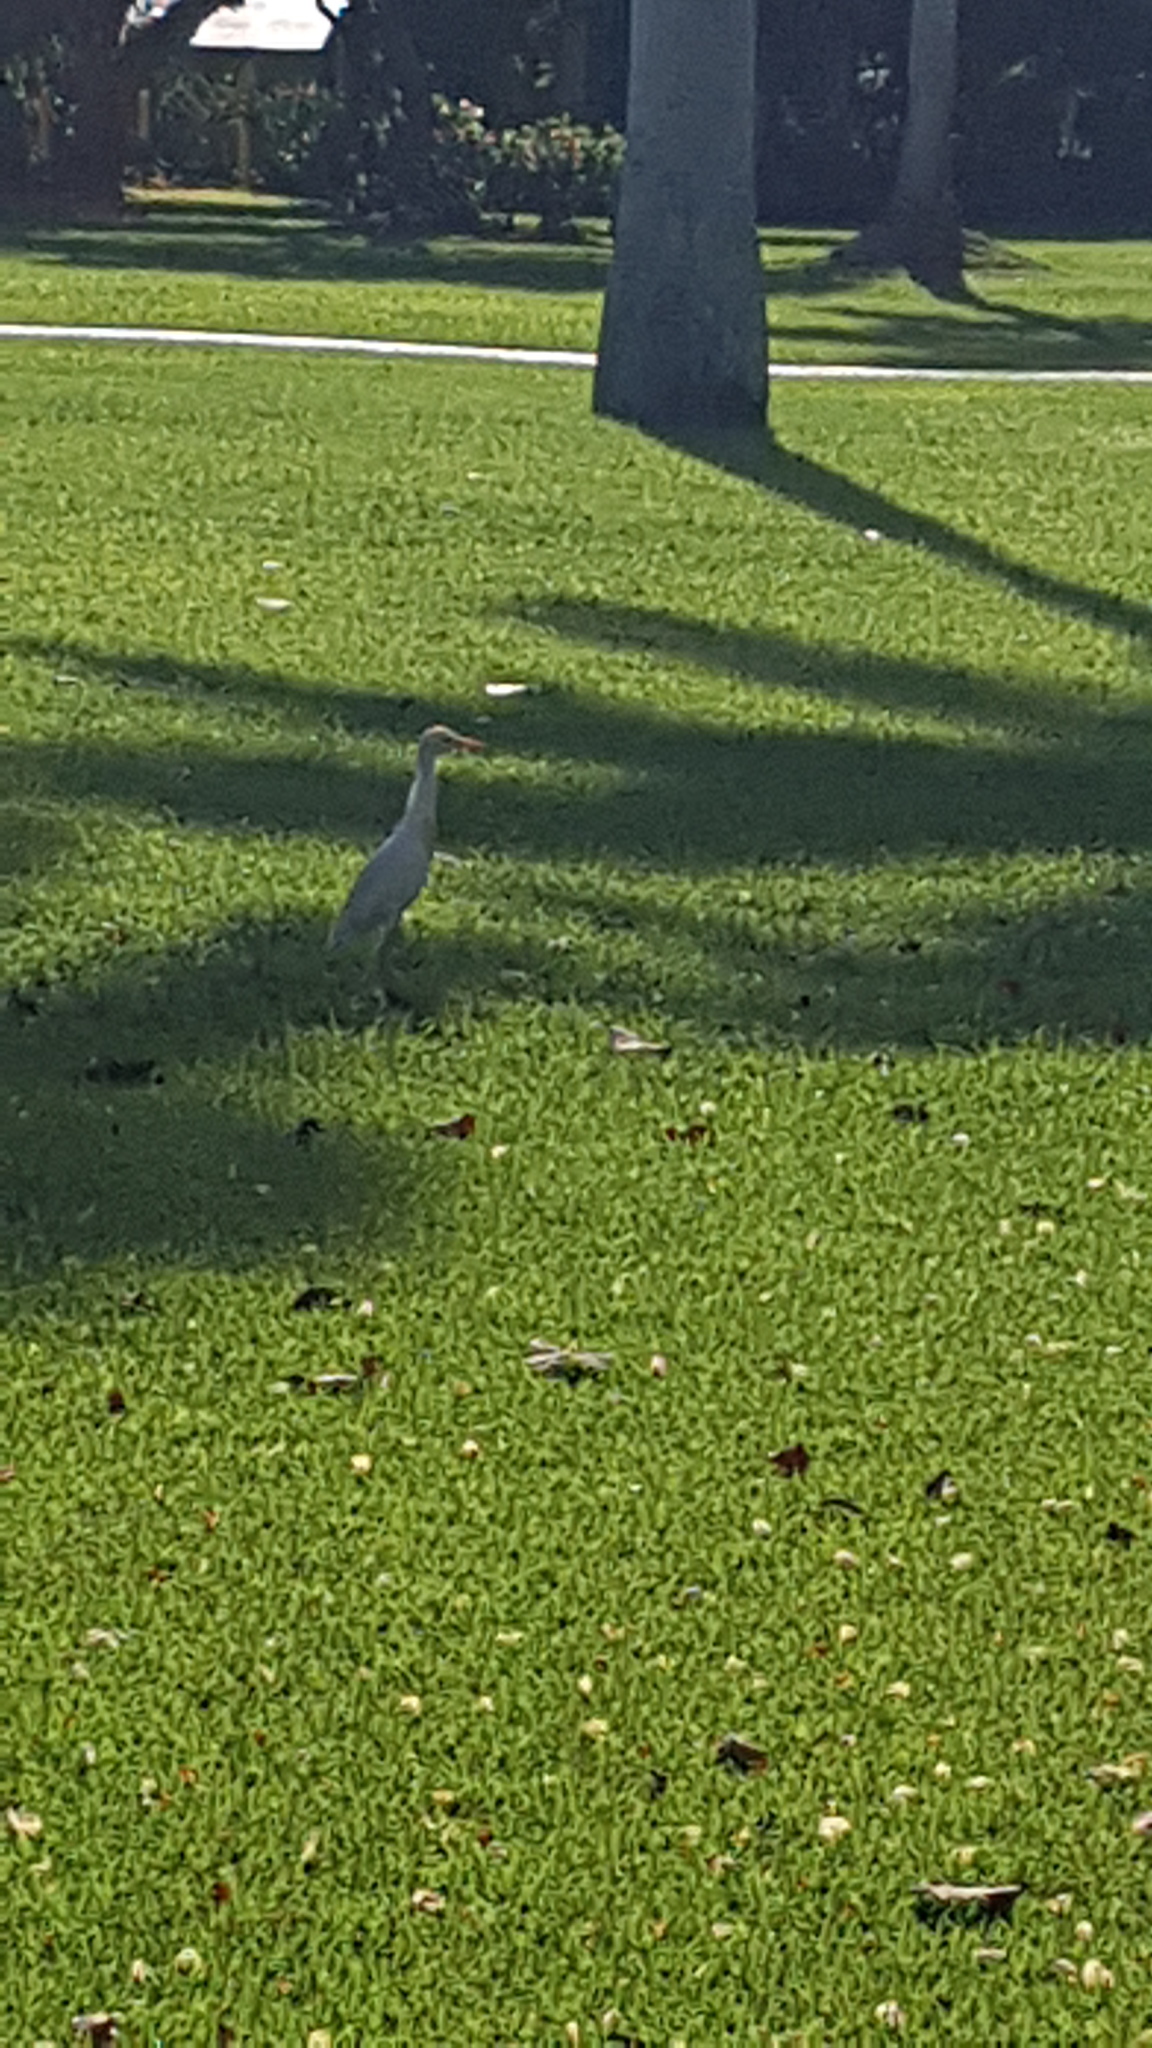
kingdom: Animalia
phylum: Chordata
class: Aves
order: Pelecaniformes
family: Ardeidae
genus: Bubulcus
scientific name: Bubulcus ibis
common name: Cattle egret
